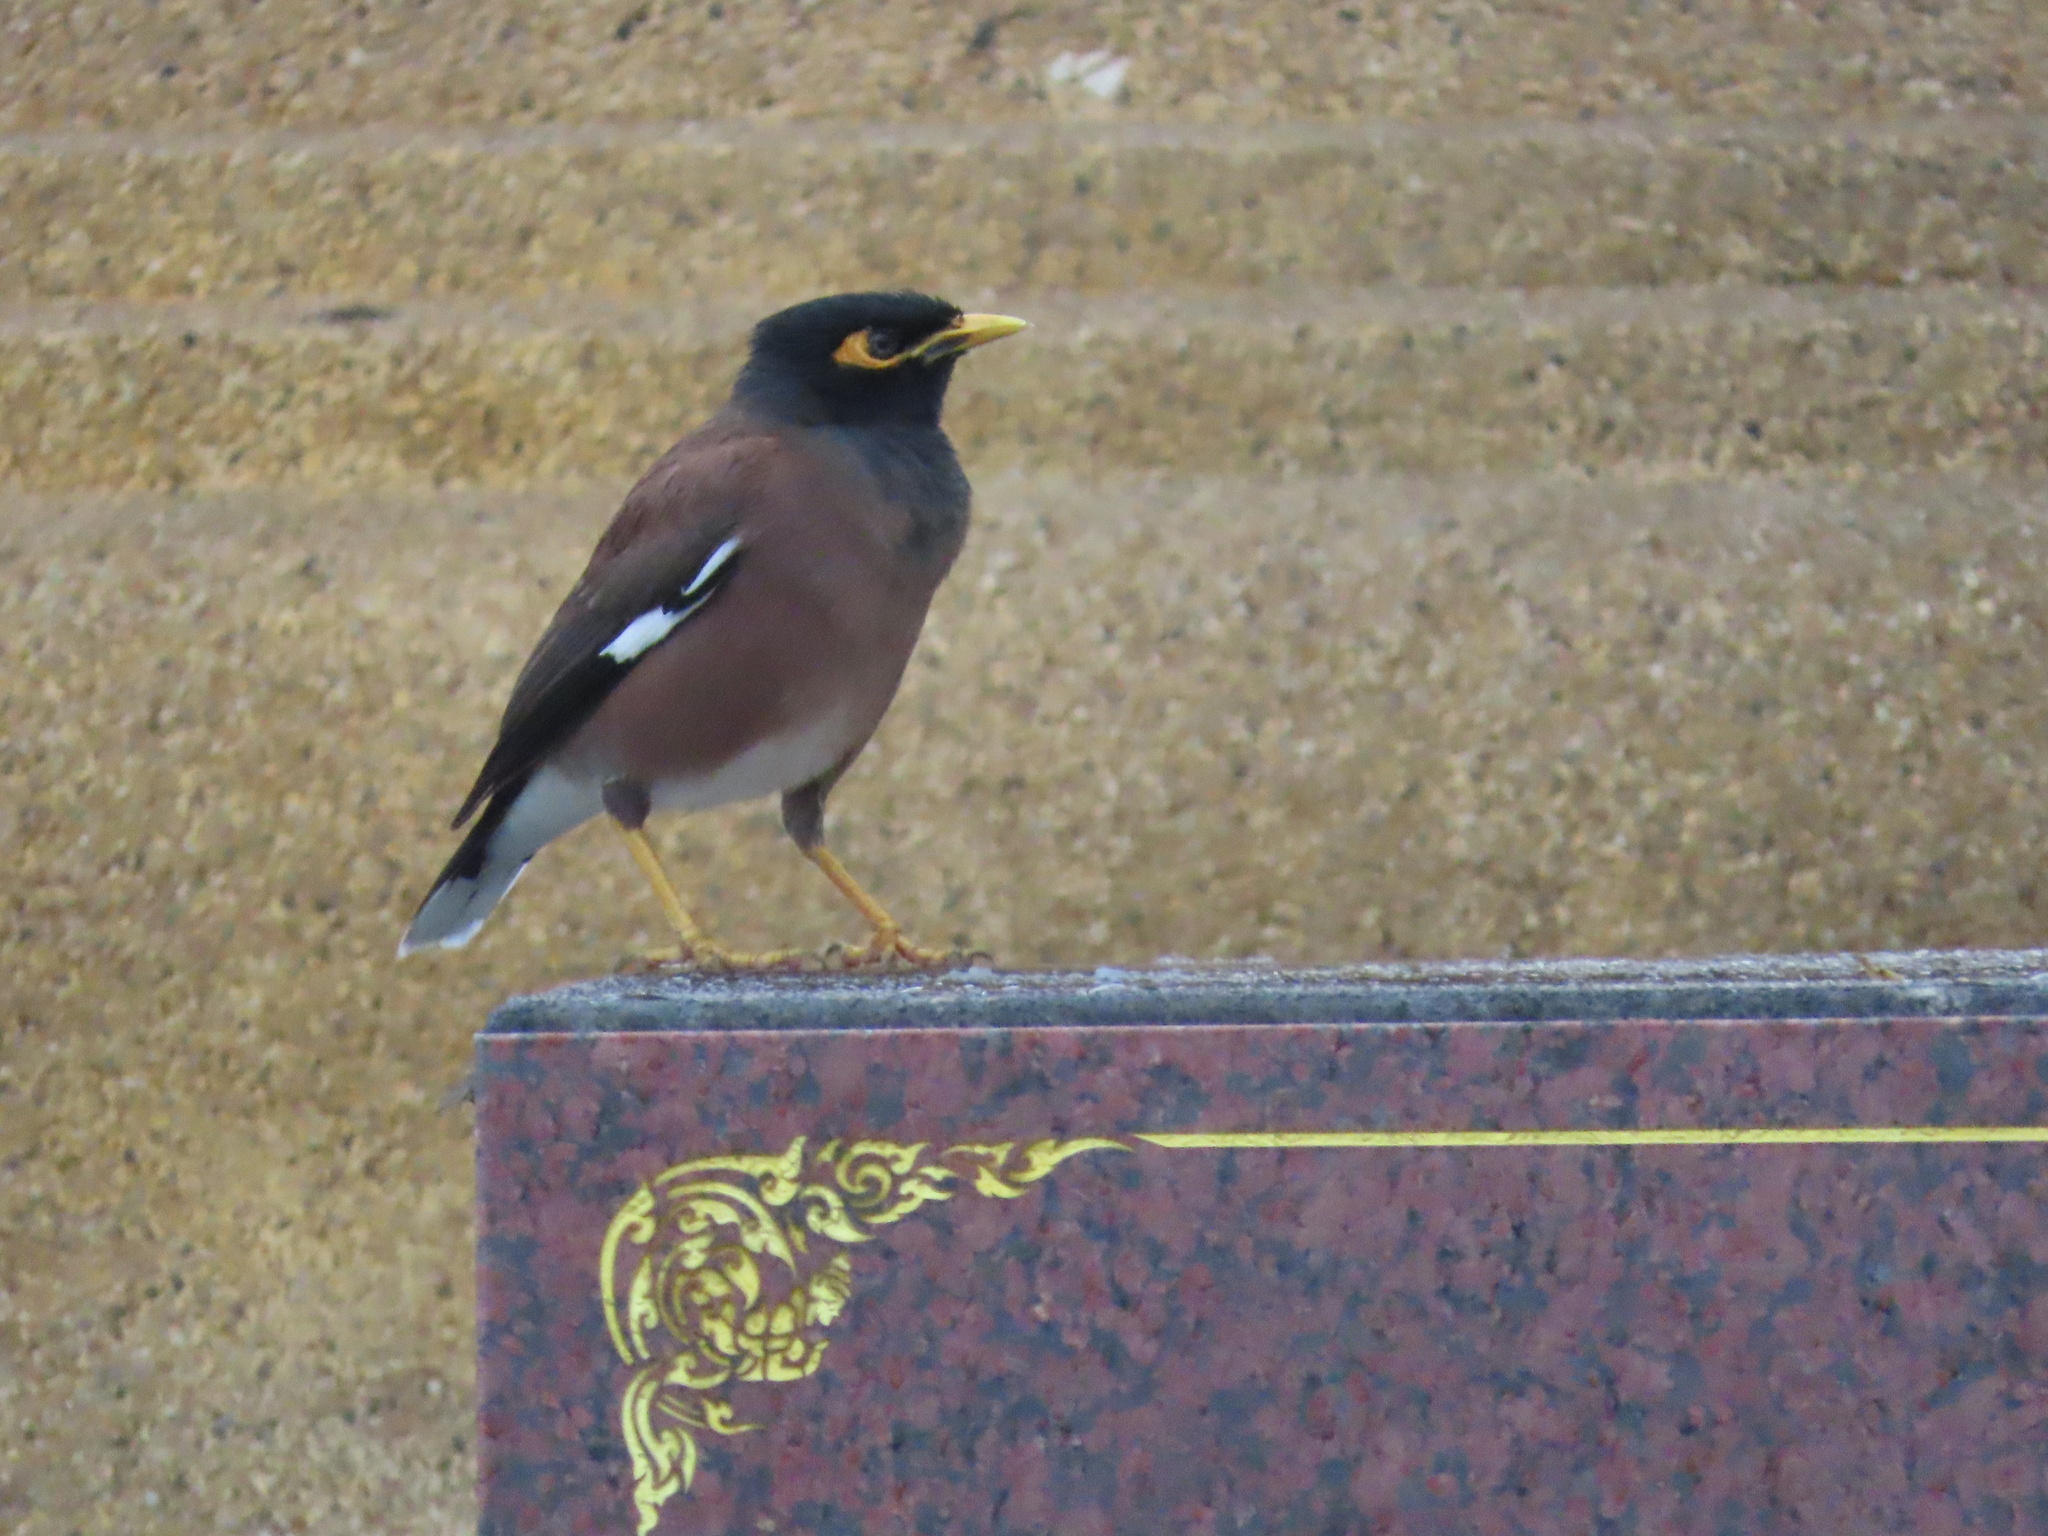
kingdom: Animalia
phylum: Chordata
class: Aves
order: Passeriformes
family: Sturnidae
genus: Acridotheres
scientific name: Acridotheres tristis
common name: Common myna
